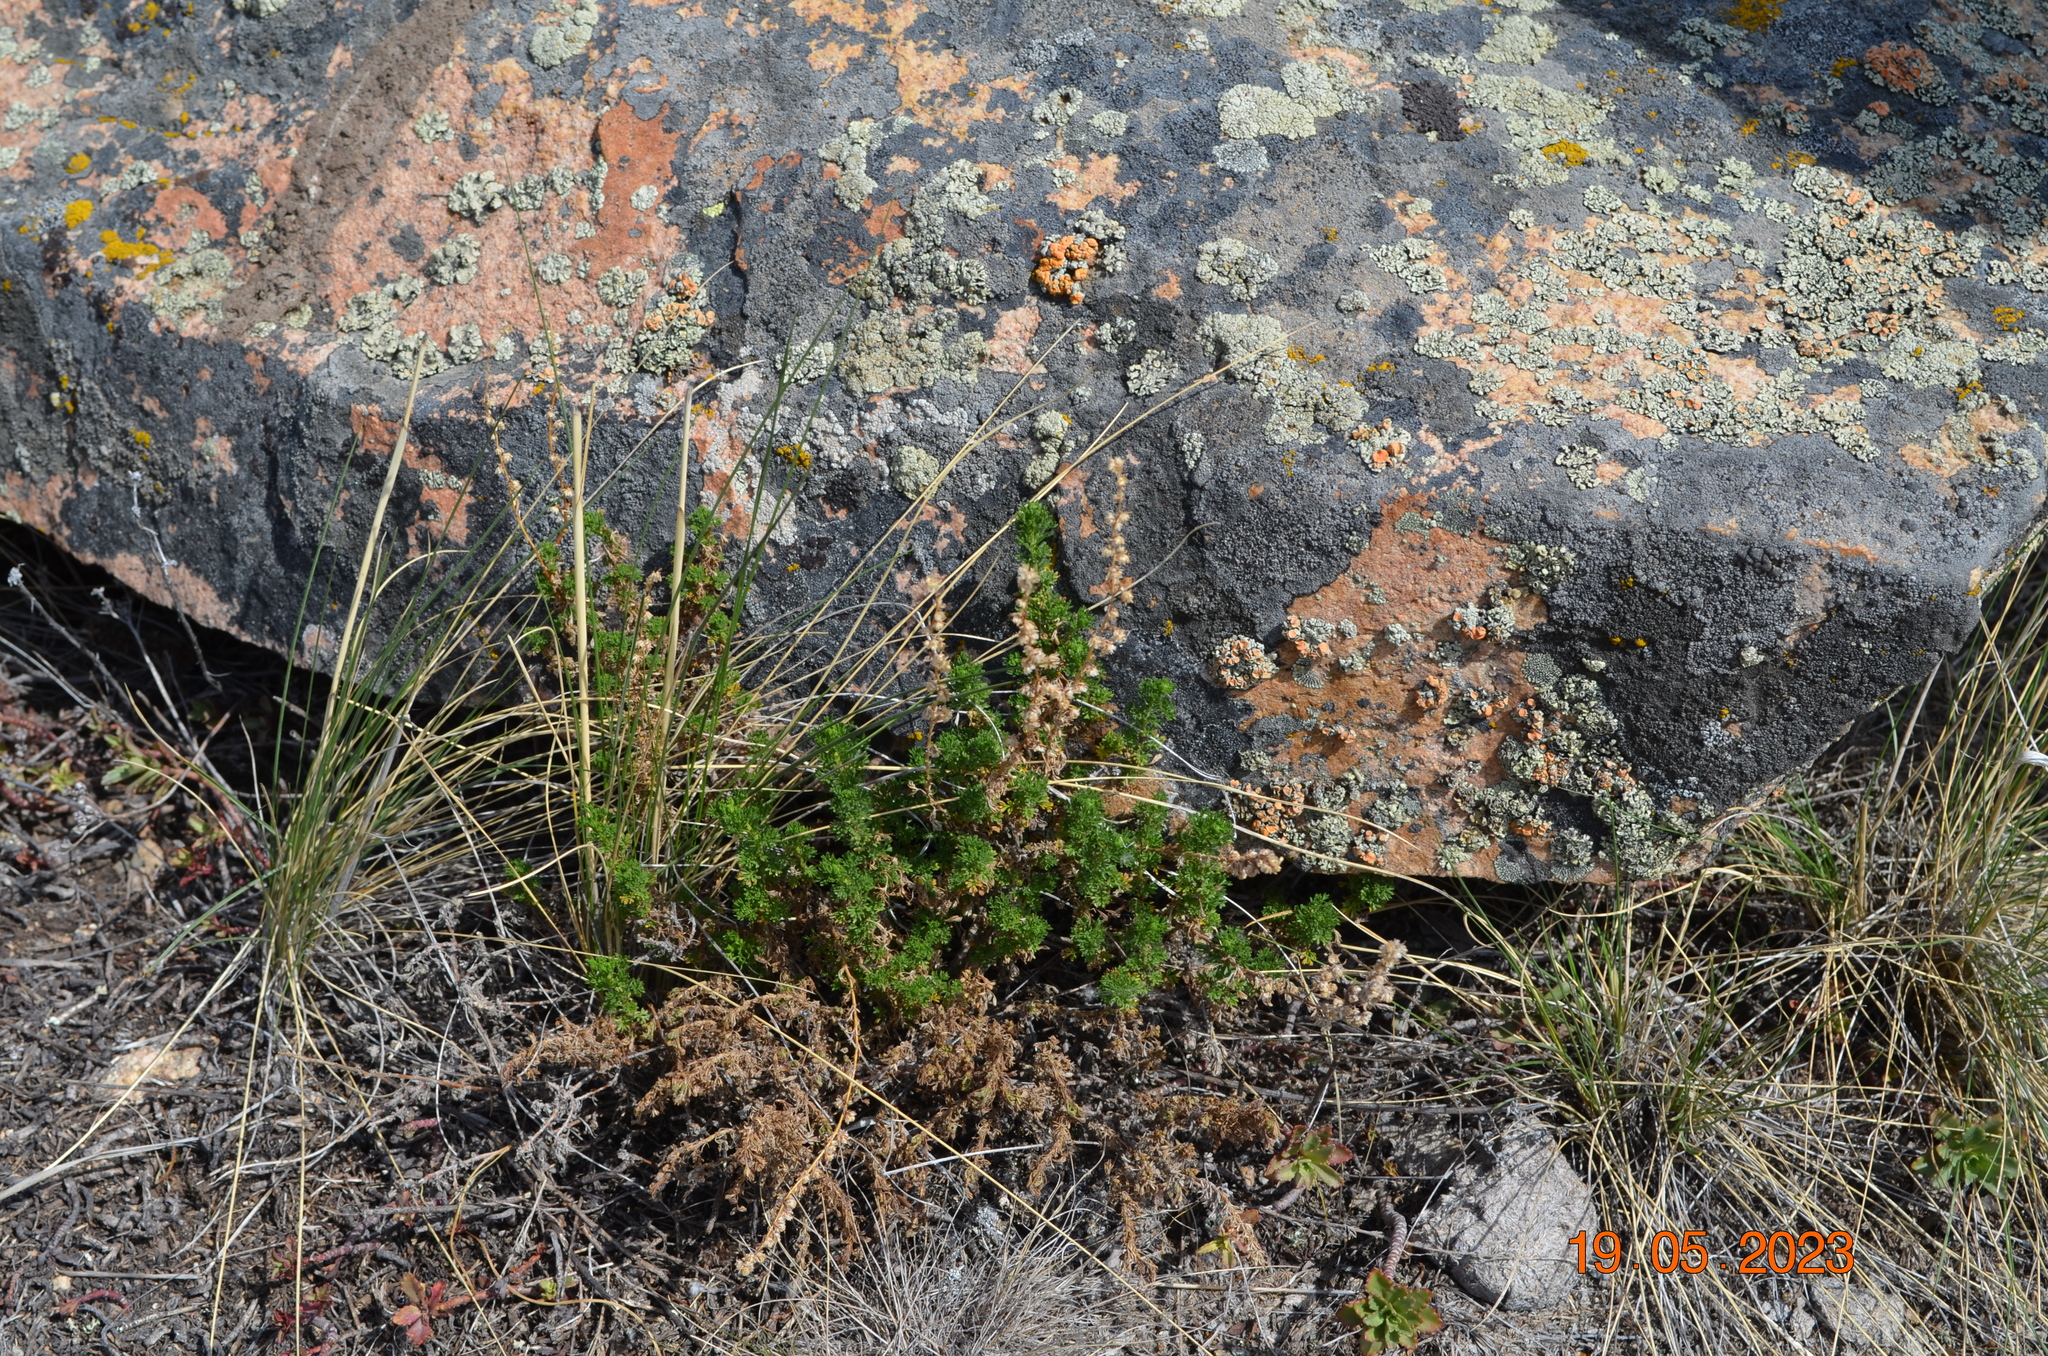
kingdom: Plantae
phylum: Tracheophyta
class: Magnoliopsida
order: Asterales
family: Asteraceae
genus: Artemisia
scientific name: Artemisia obtusiloba
